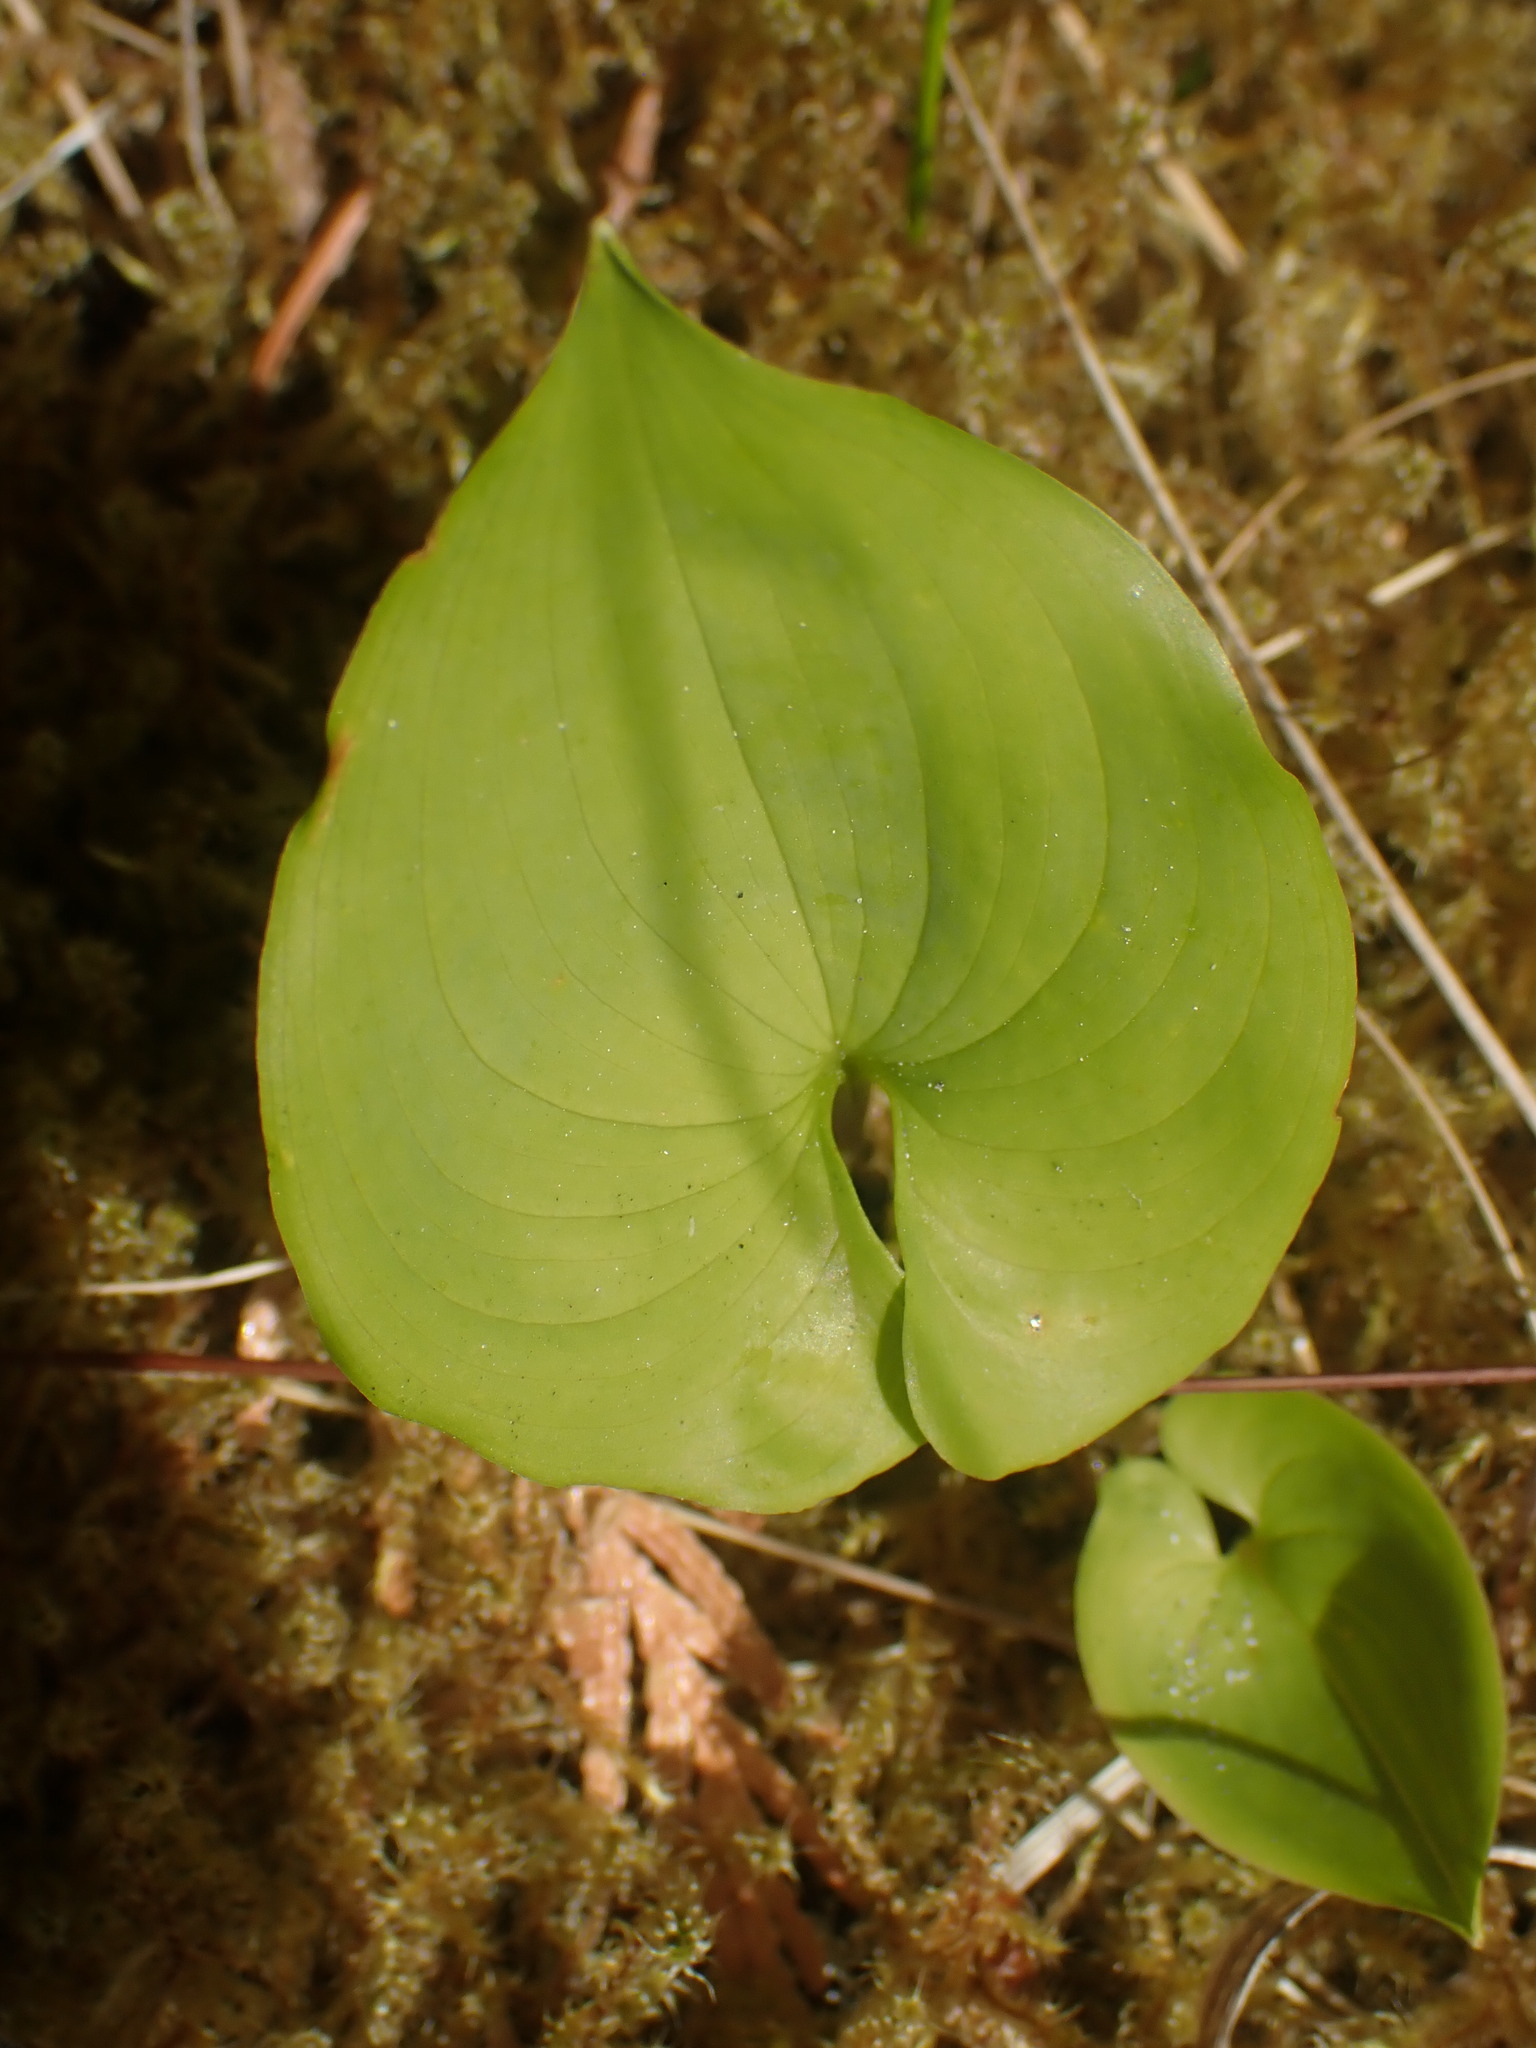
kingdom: Plantae
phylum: Tracheophyta
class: Liliopsida
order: Asparagales
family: Asparagaceae
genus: Maianthemum
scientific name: Maianthemum dilatatum
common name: False lily-of-the-valley
